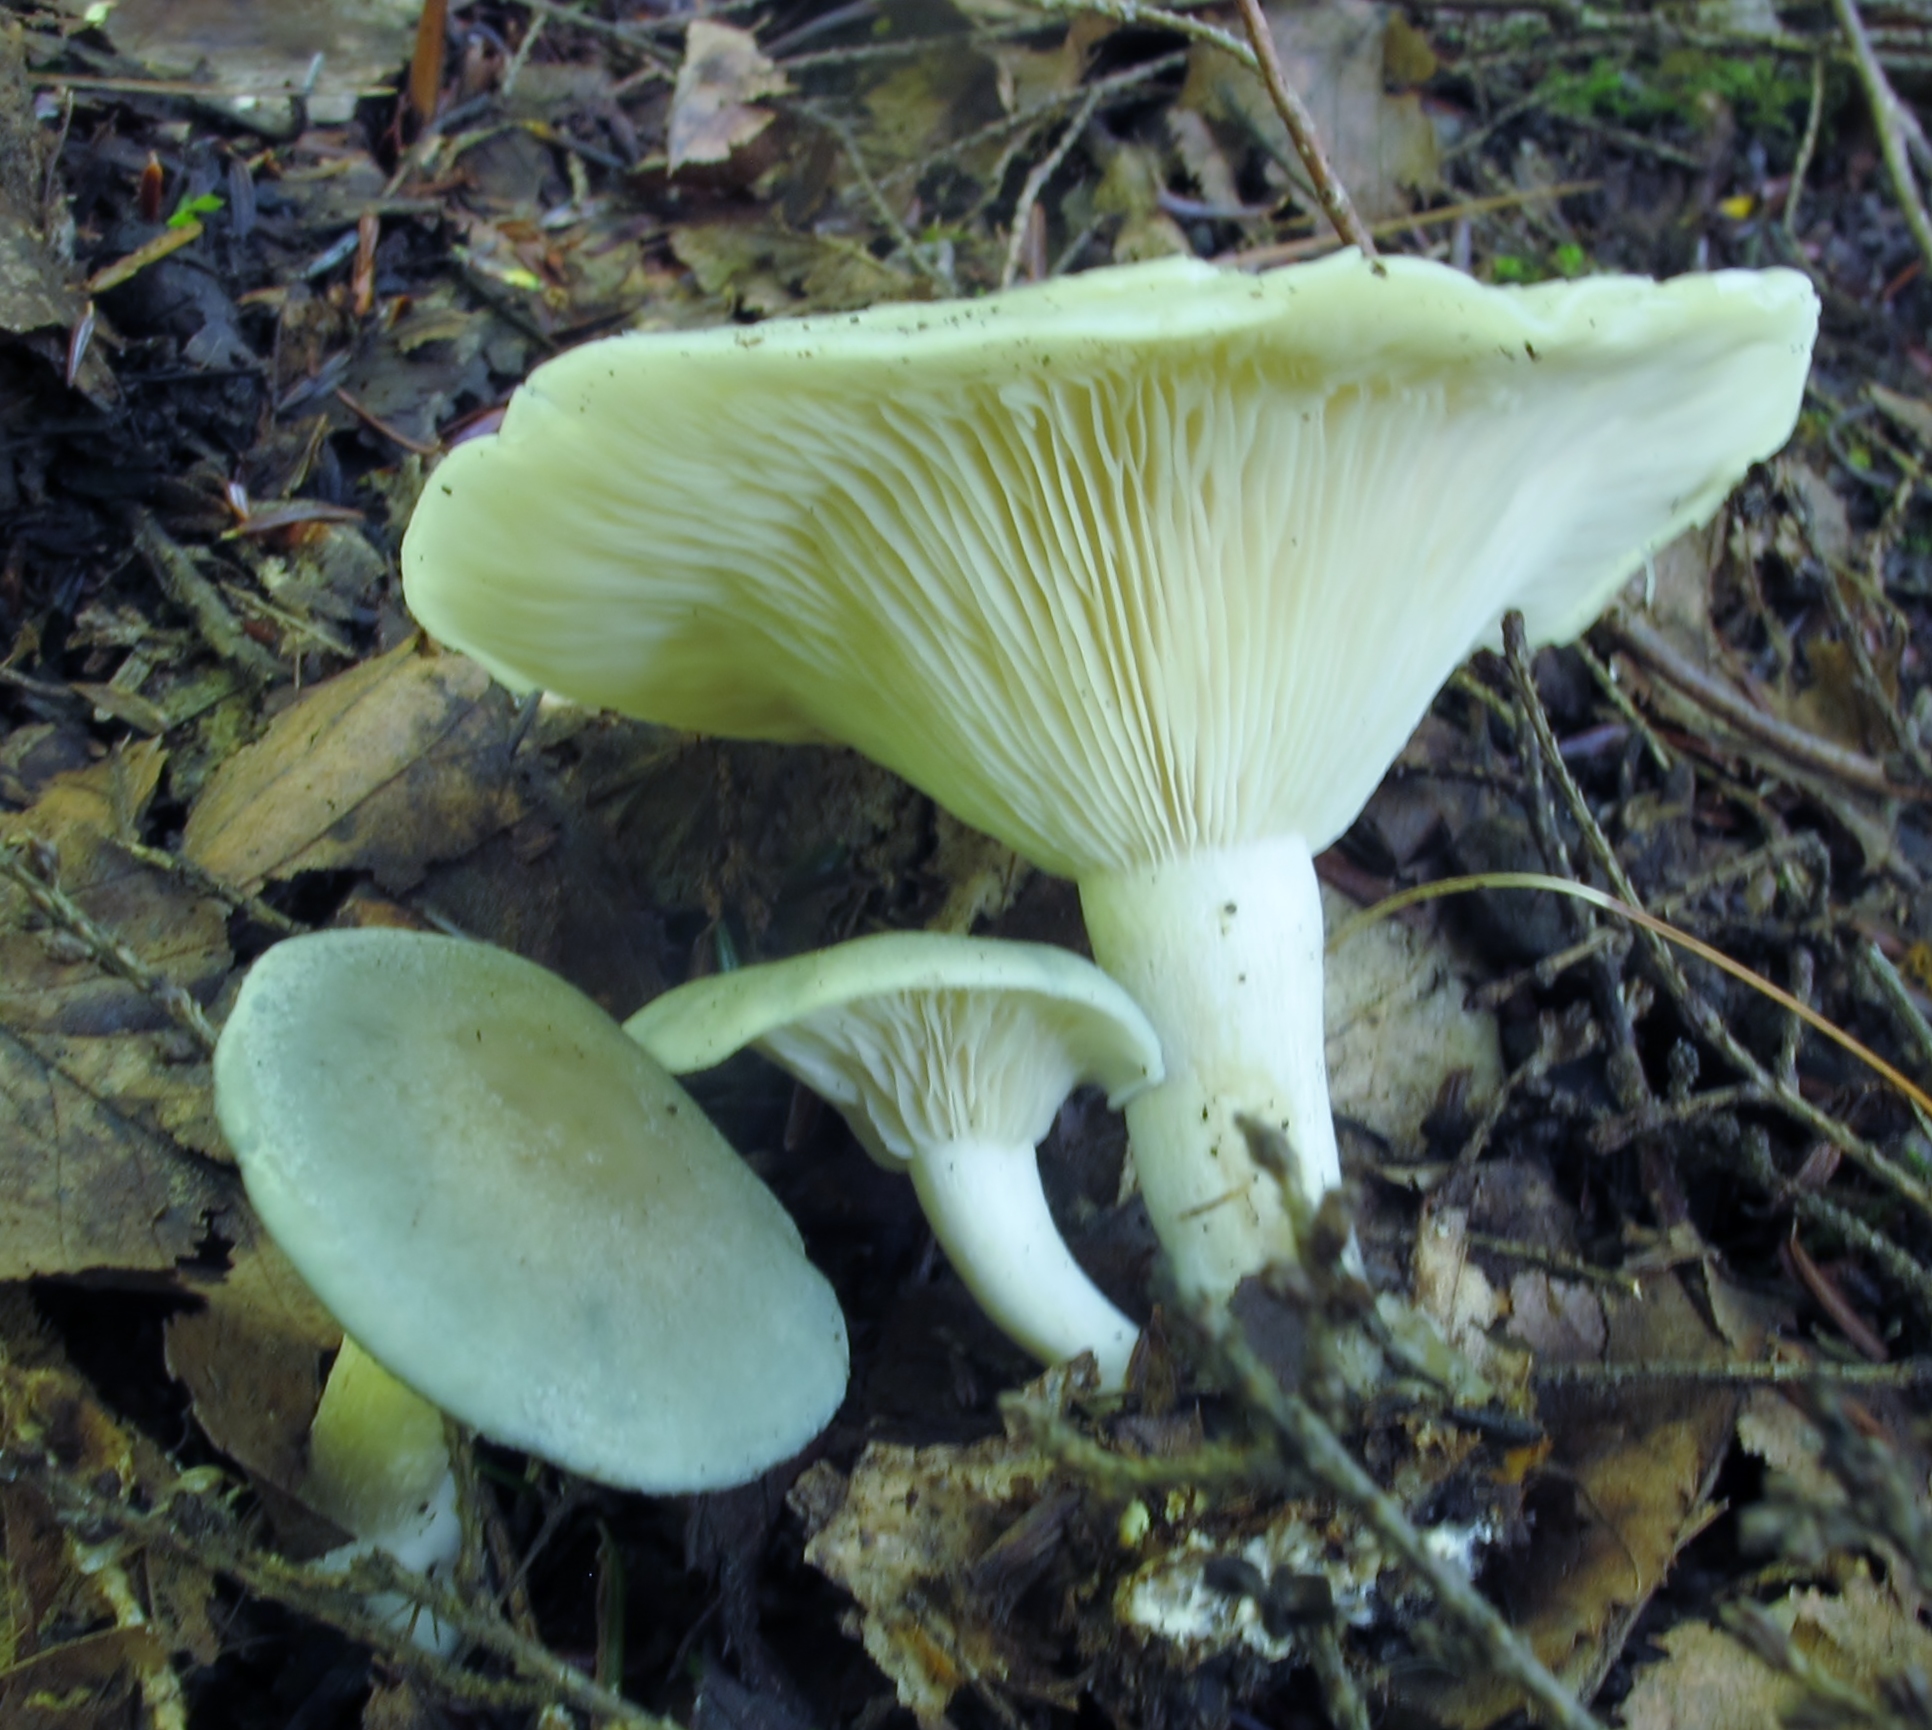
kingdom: Fungi
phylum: Basidiomycota
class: Agaricomycetes
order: Agaricales
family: Tricholomataceae
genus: Collybia
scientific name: Collybia
